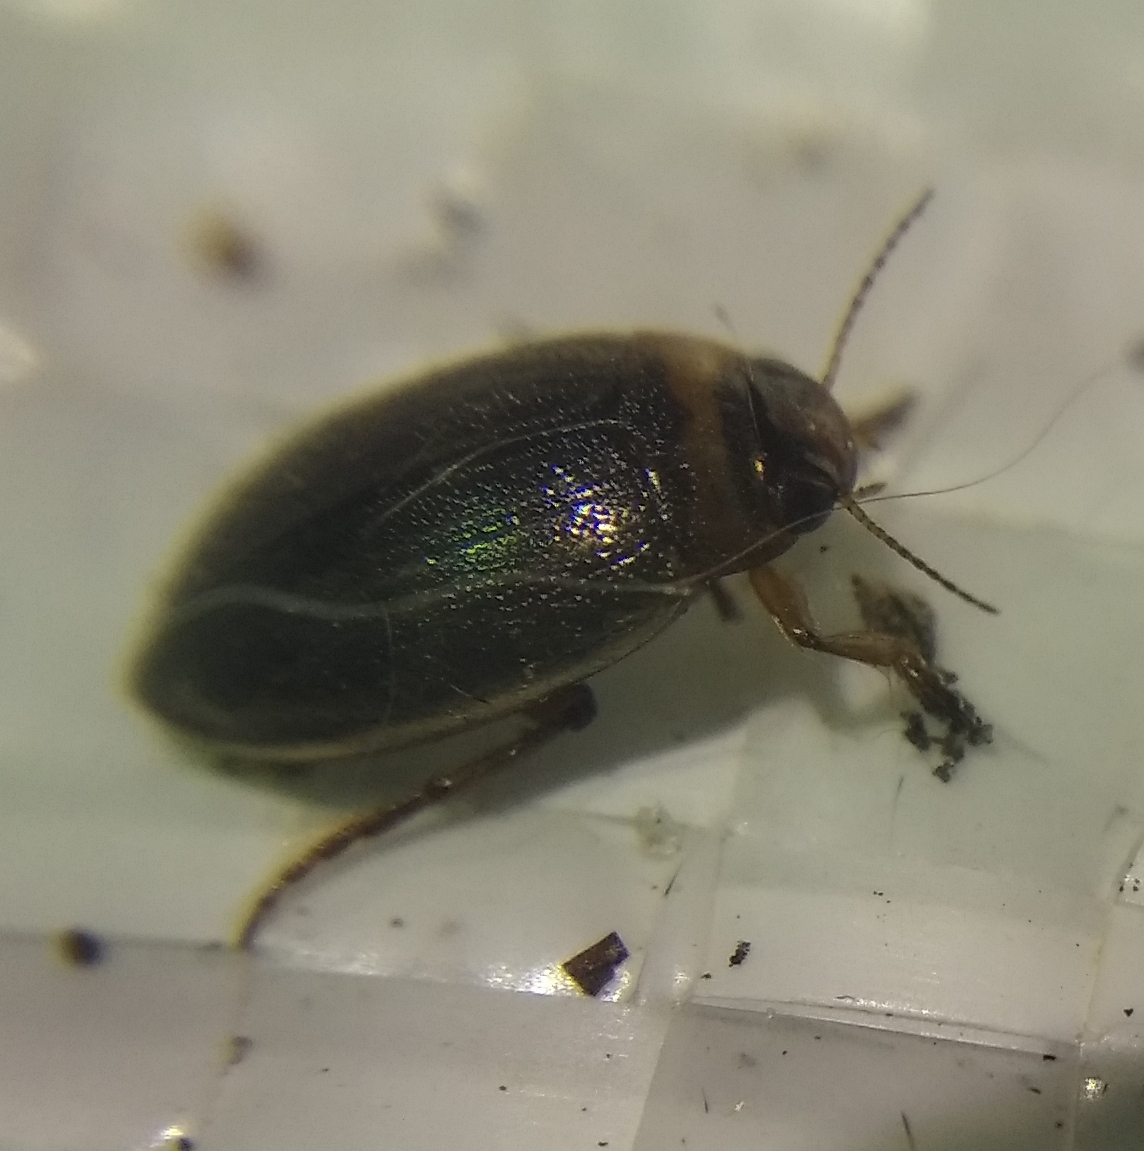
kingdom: Animalia
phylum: Arthropoda
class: Insecta
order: Coleoptera
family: Dytiscidae
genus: Hygrotus
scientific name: Hygrotus impressopunctatus
